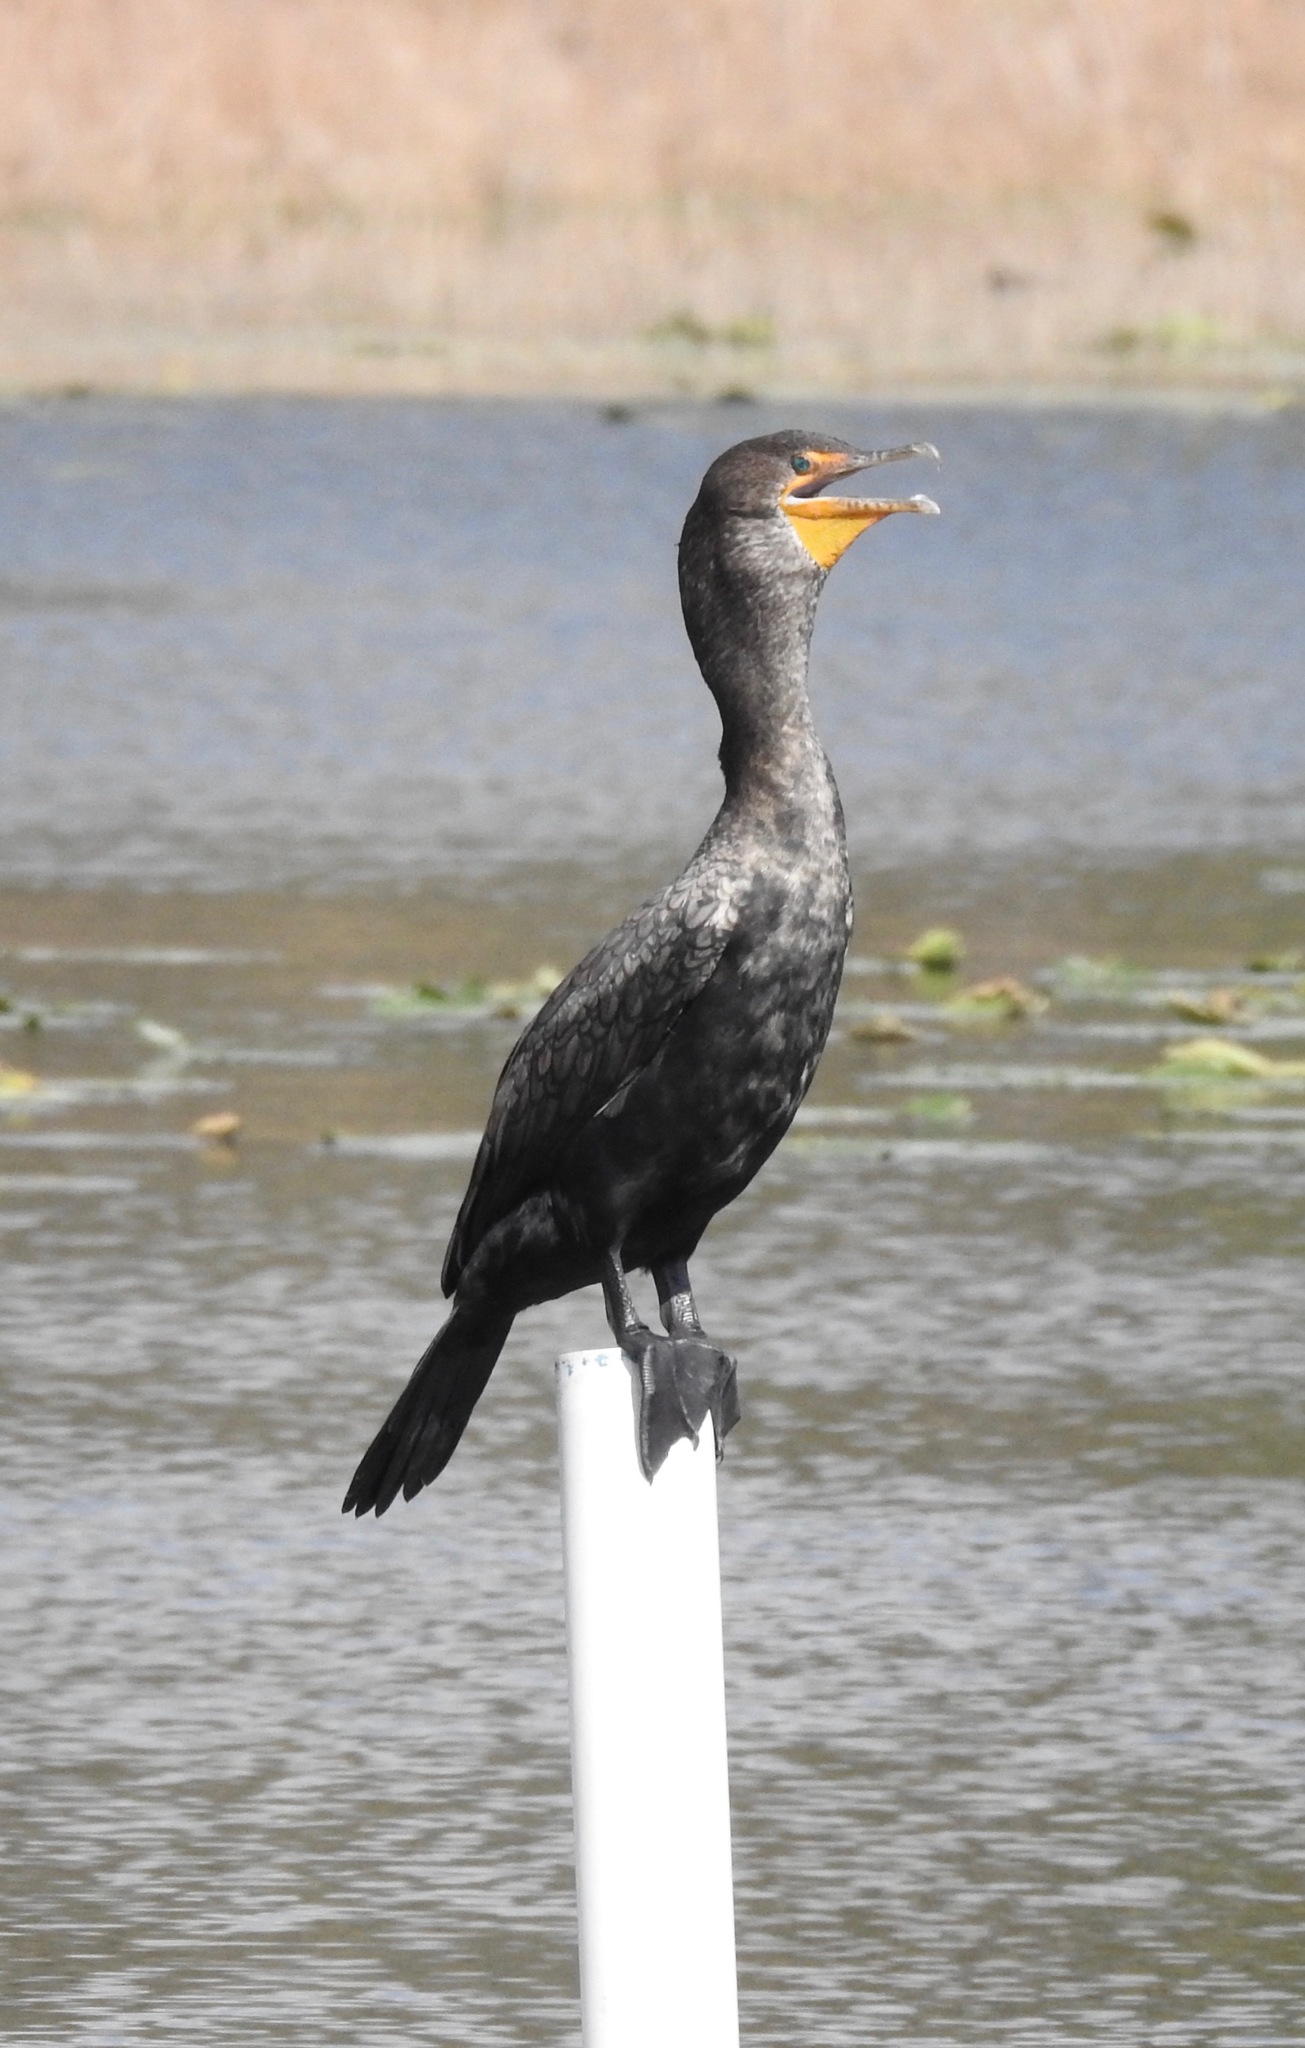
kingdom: Animalia
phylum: Chordata
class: Aves
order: Suliformes
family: Phalacrocoracidae
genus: Phalacrocorax
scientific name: Phalacrocorax auritus
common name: Double-crested cormorant
